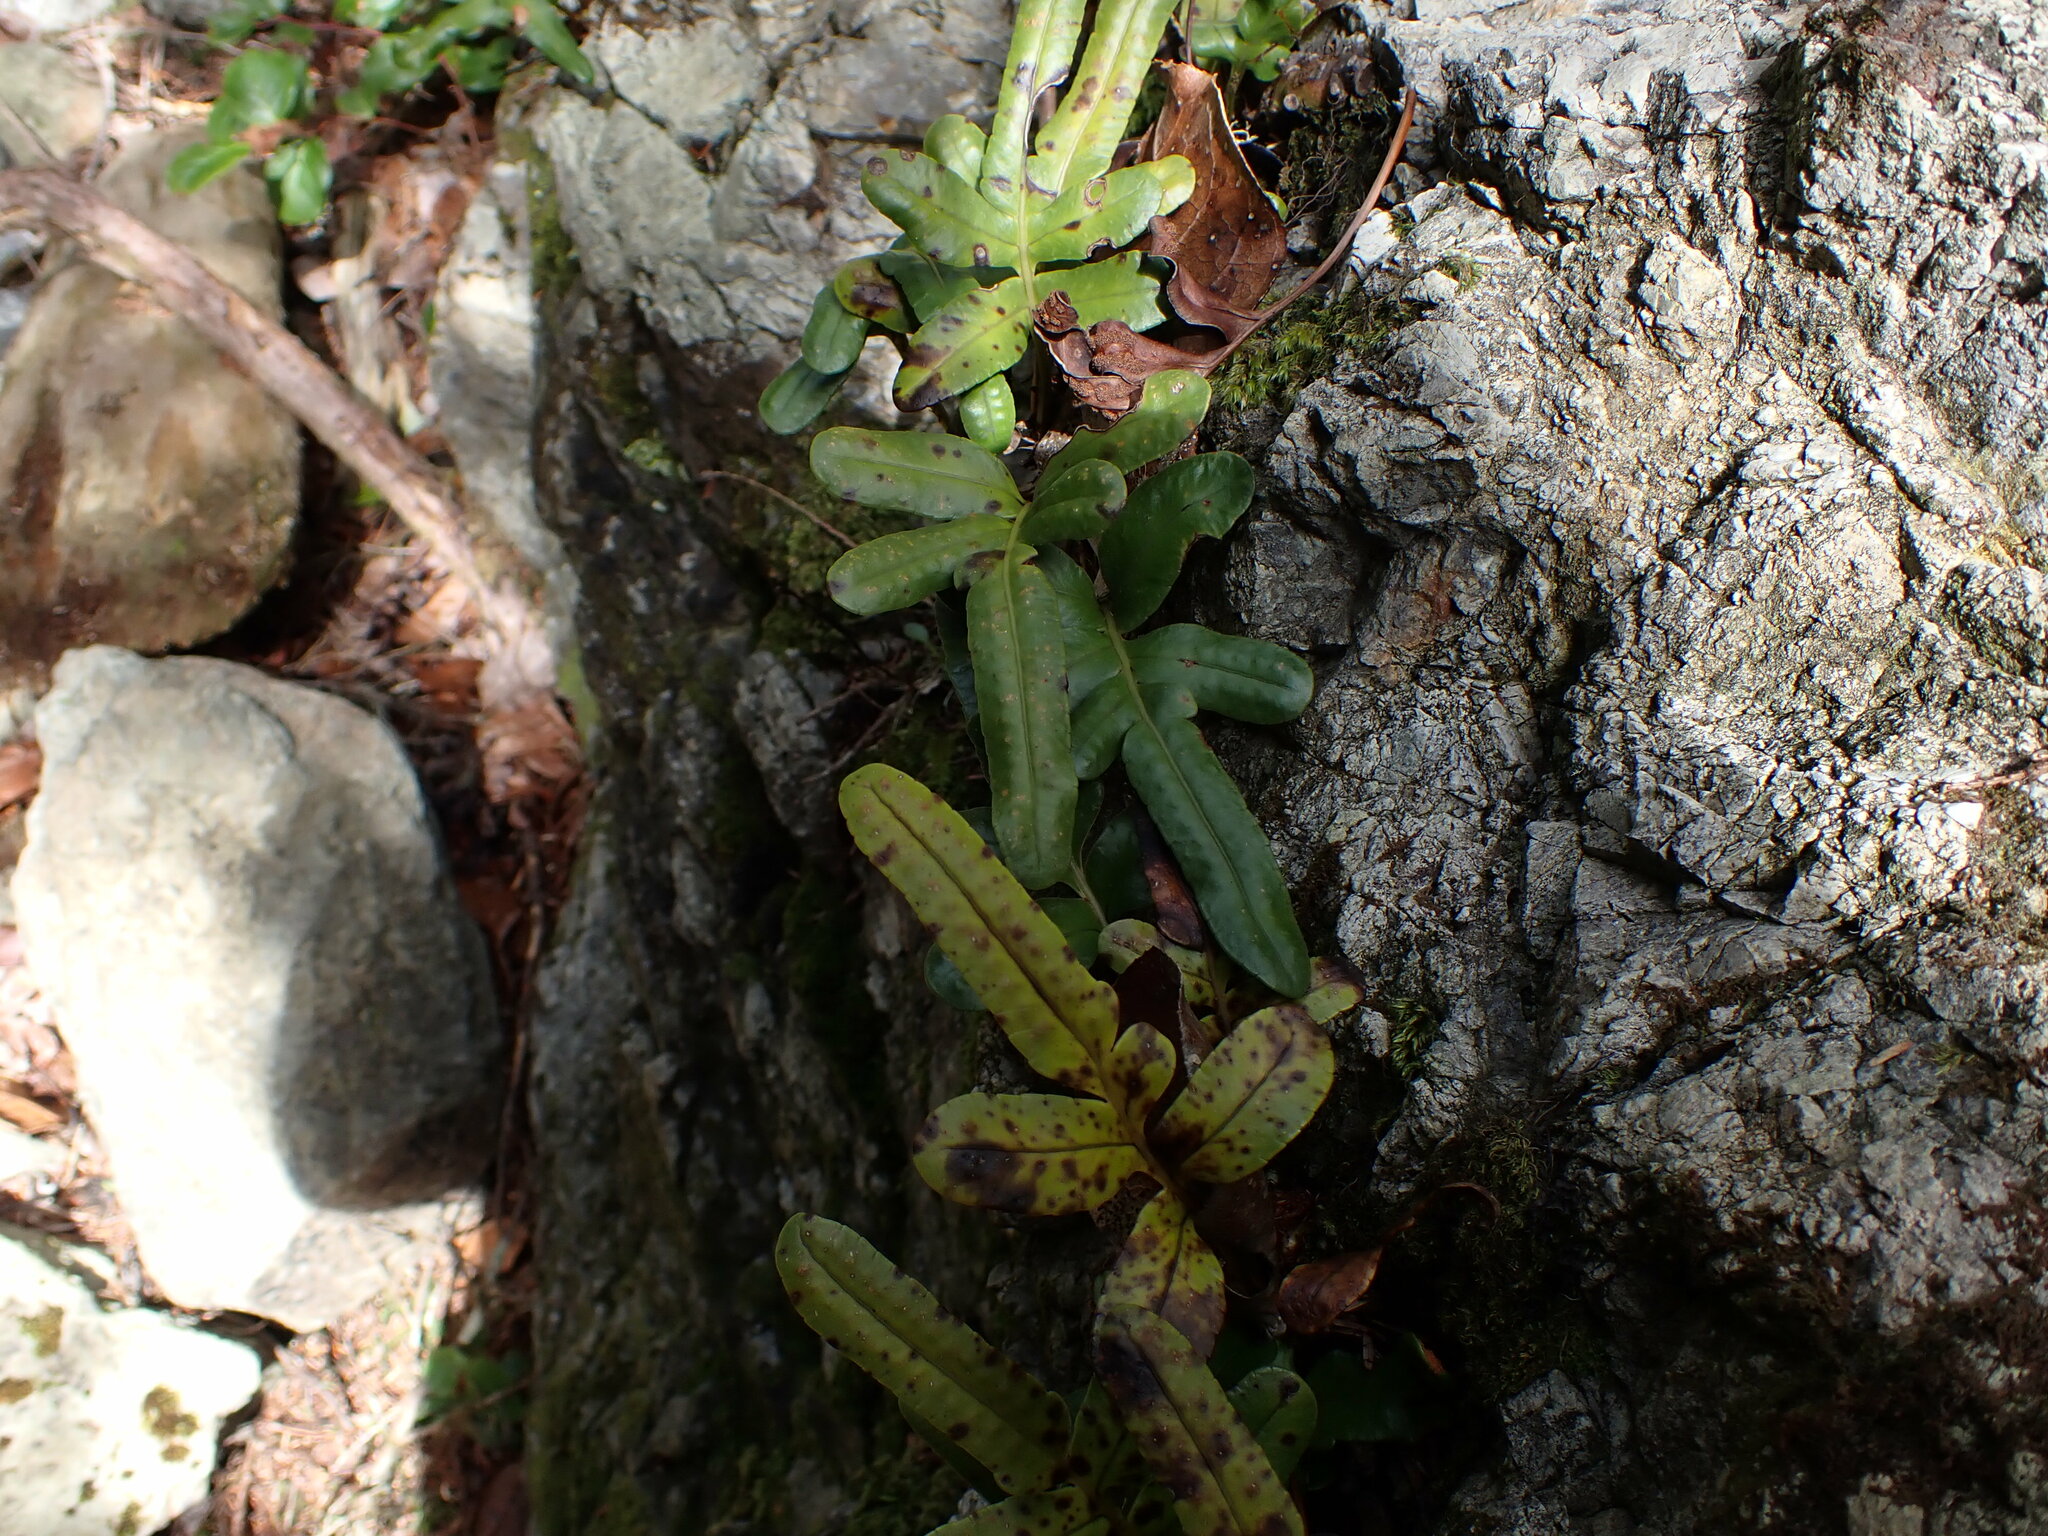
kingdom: Plantae
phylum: Tracheophyta
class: Polypodiopsida
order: Polypodiales
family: Polypodiaceae
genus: Polypodium
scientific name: Polypodium scouleri
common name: Scouler's polypody
